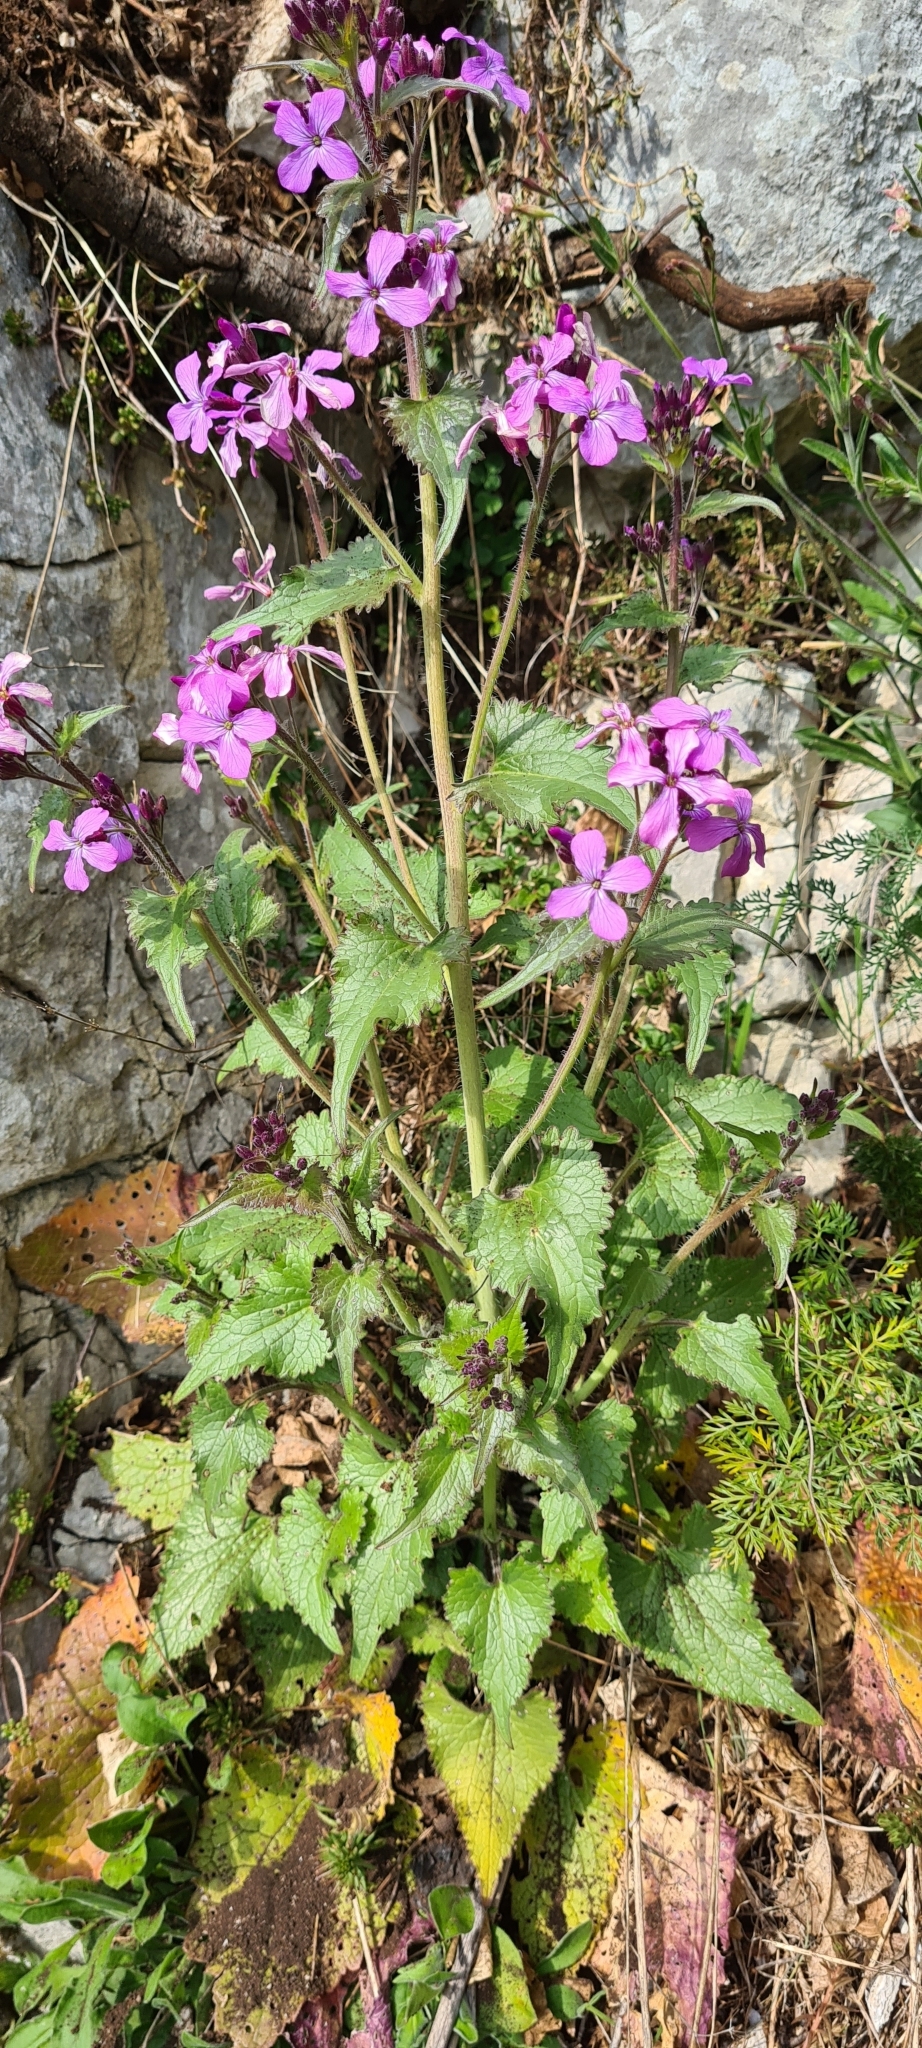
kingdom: Plantae
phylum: Tracheophyta
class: Magnoliopsida
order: Brassicales
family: Brassicaceae
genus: Lunaria
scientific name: Lunaria annua
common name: Honesty
